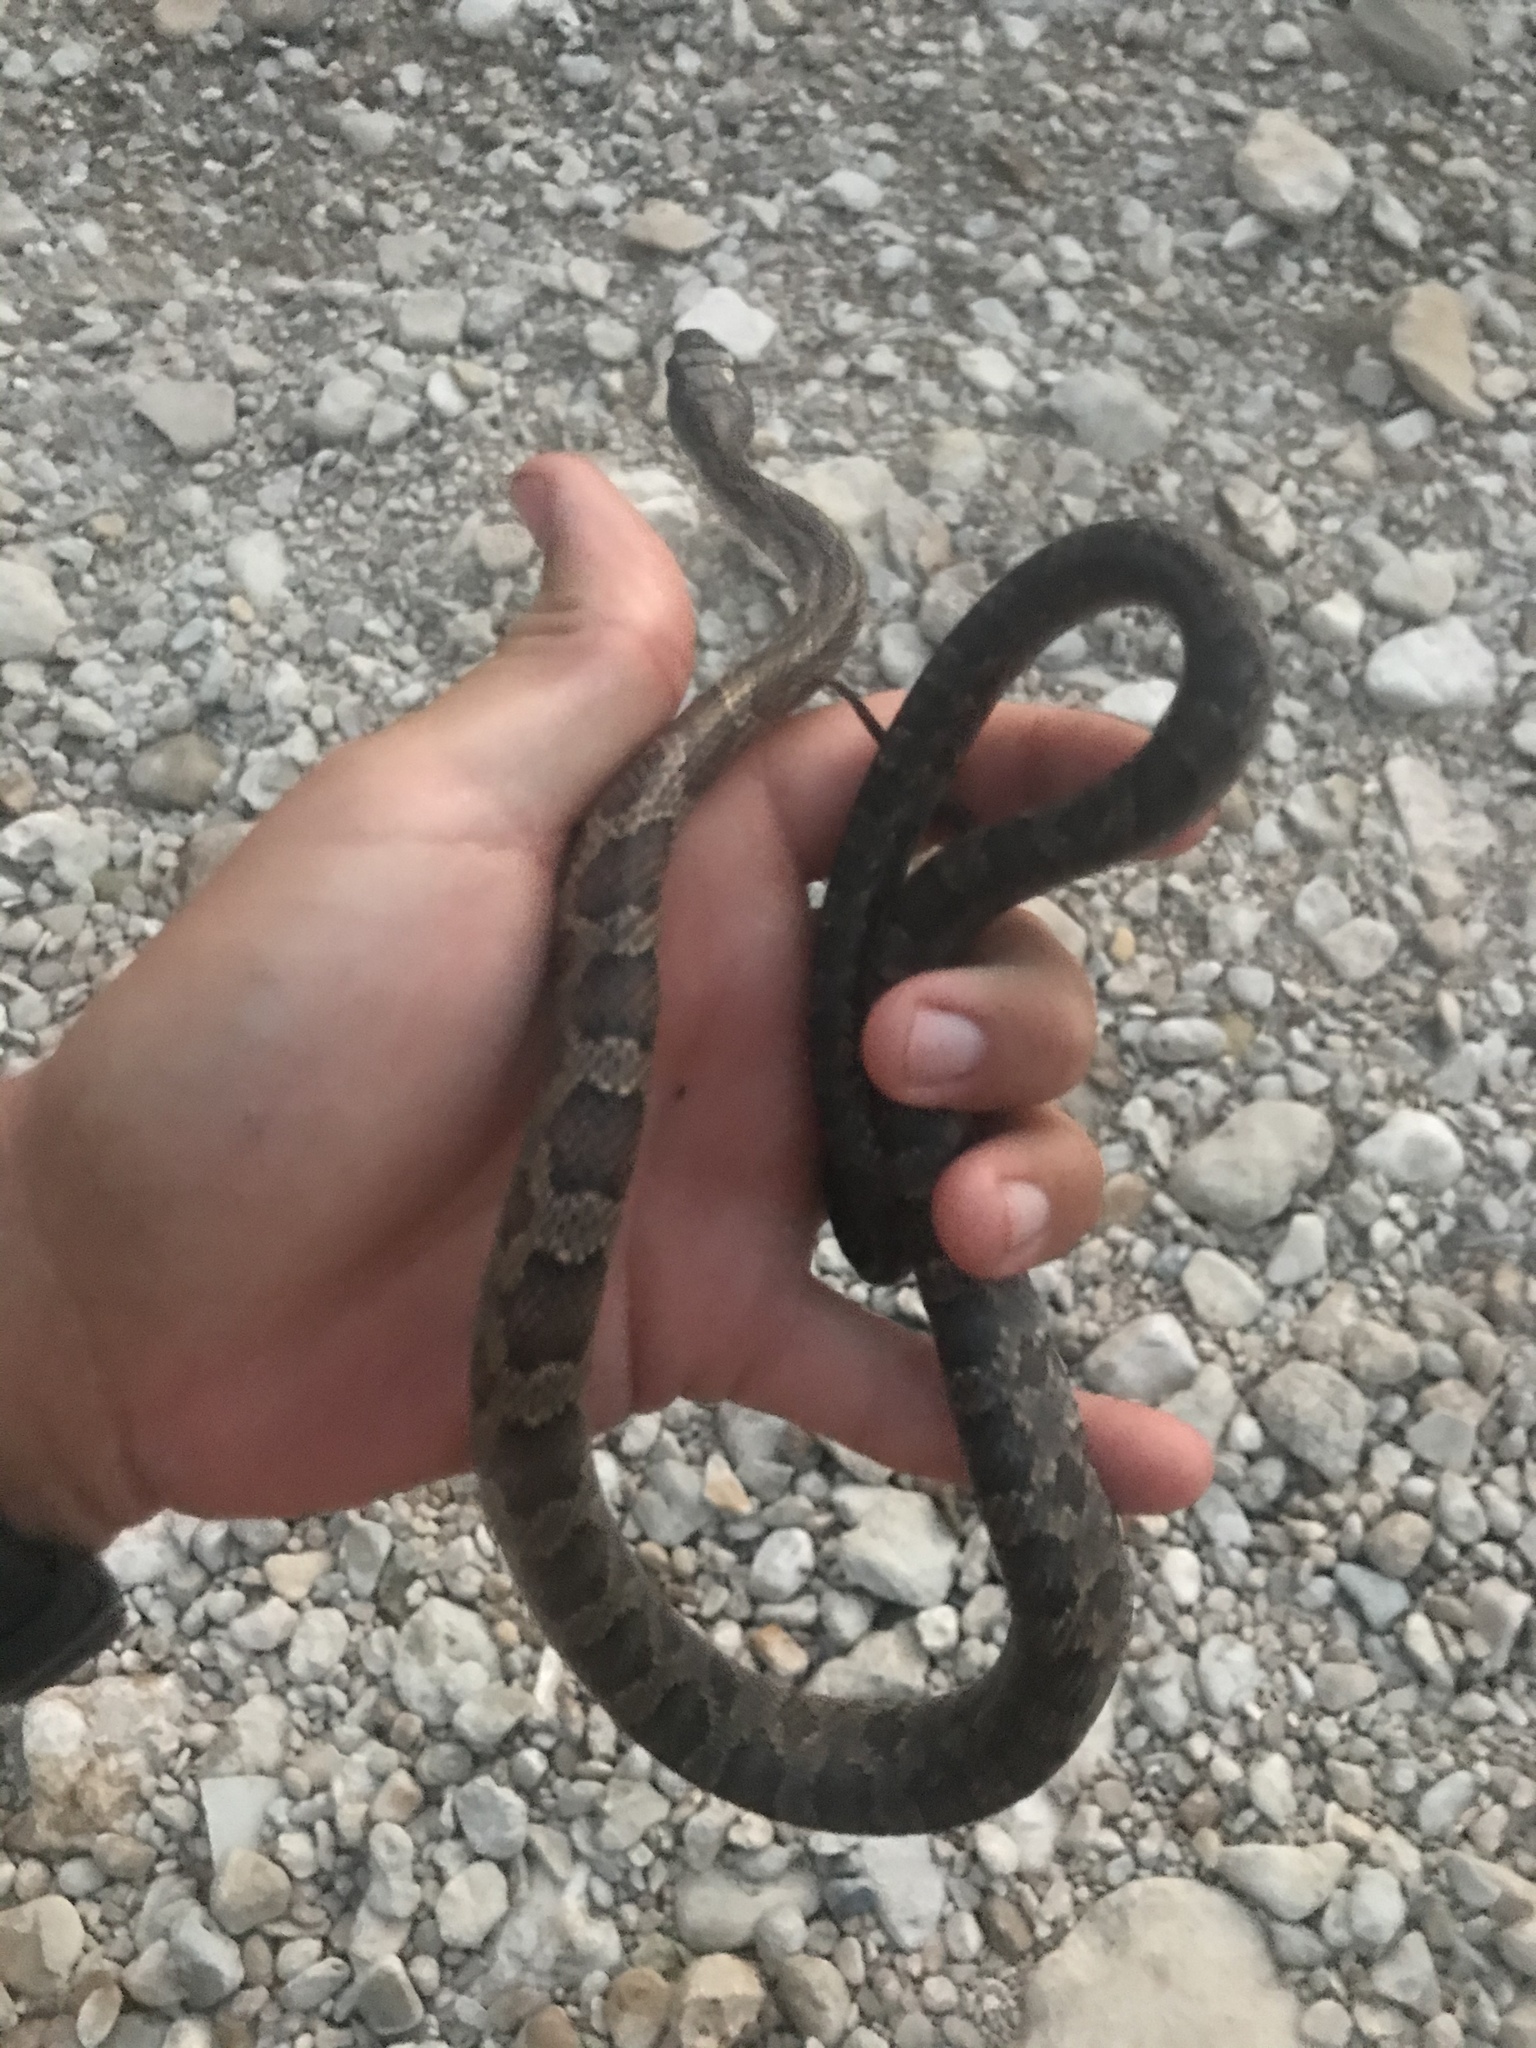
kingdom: Animalia
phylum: Chordata
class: Squamata
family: Colubridae
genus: Pantherophis
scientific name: Pantherophis obsoletus
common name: Black rat snake
